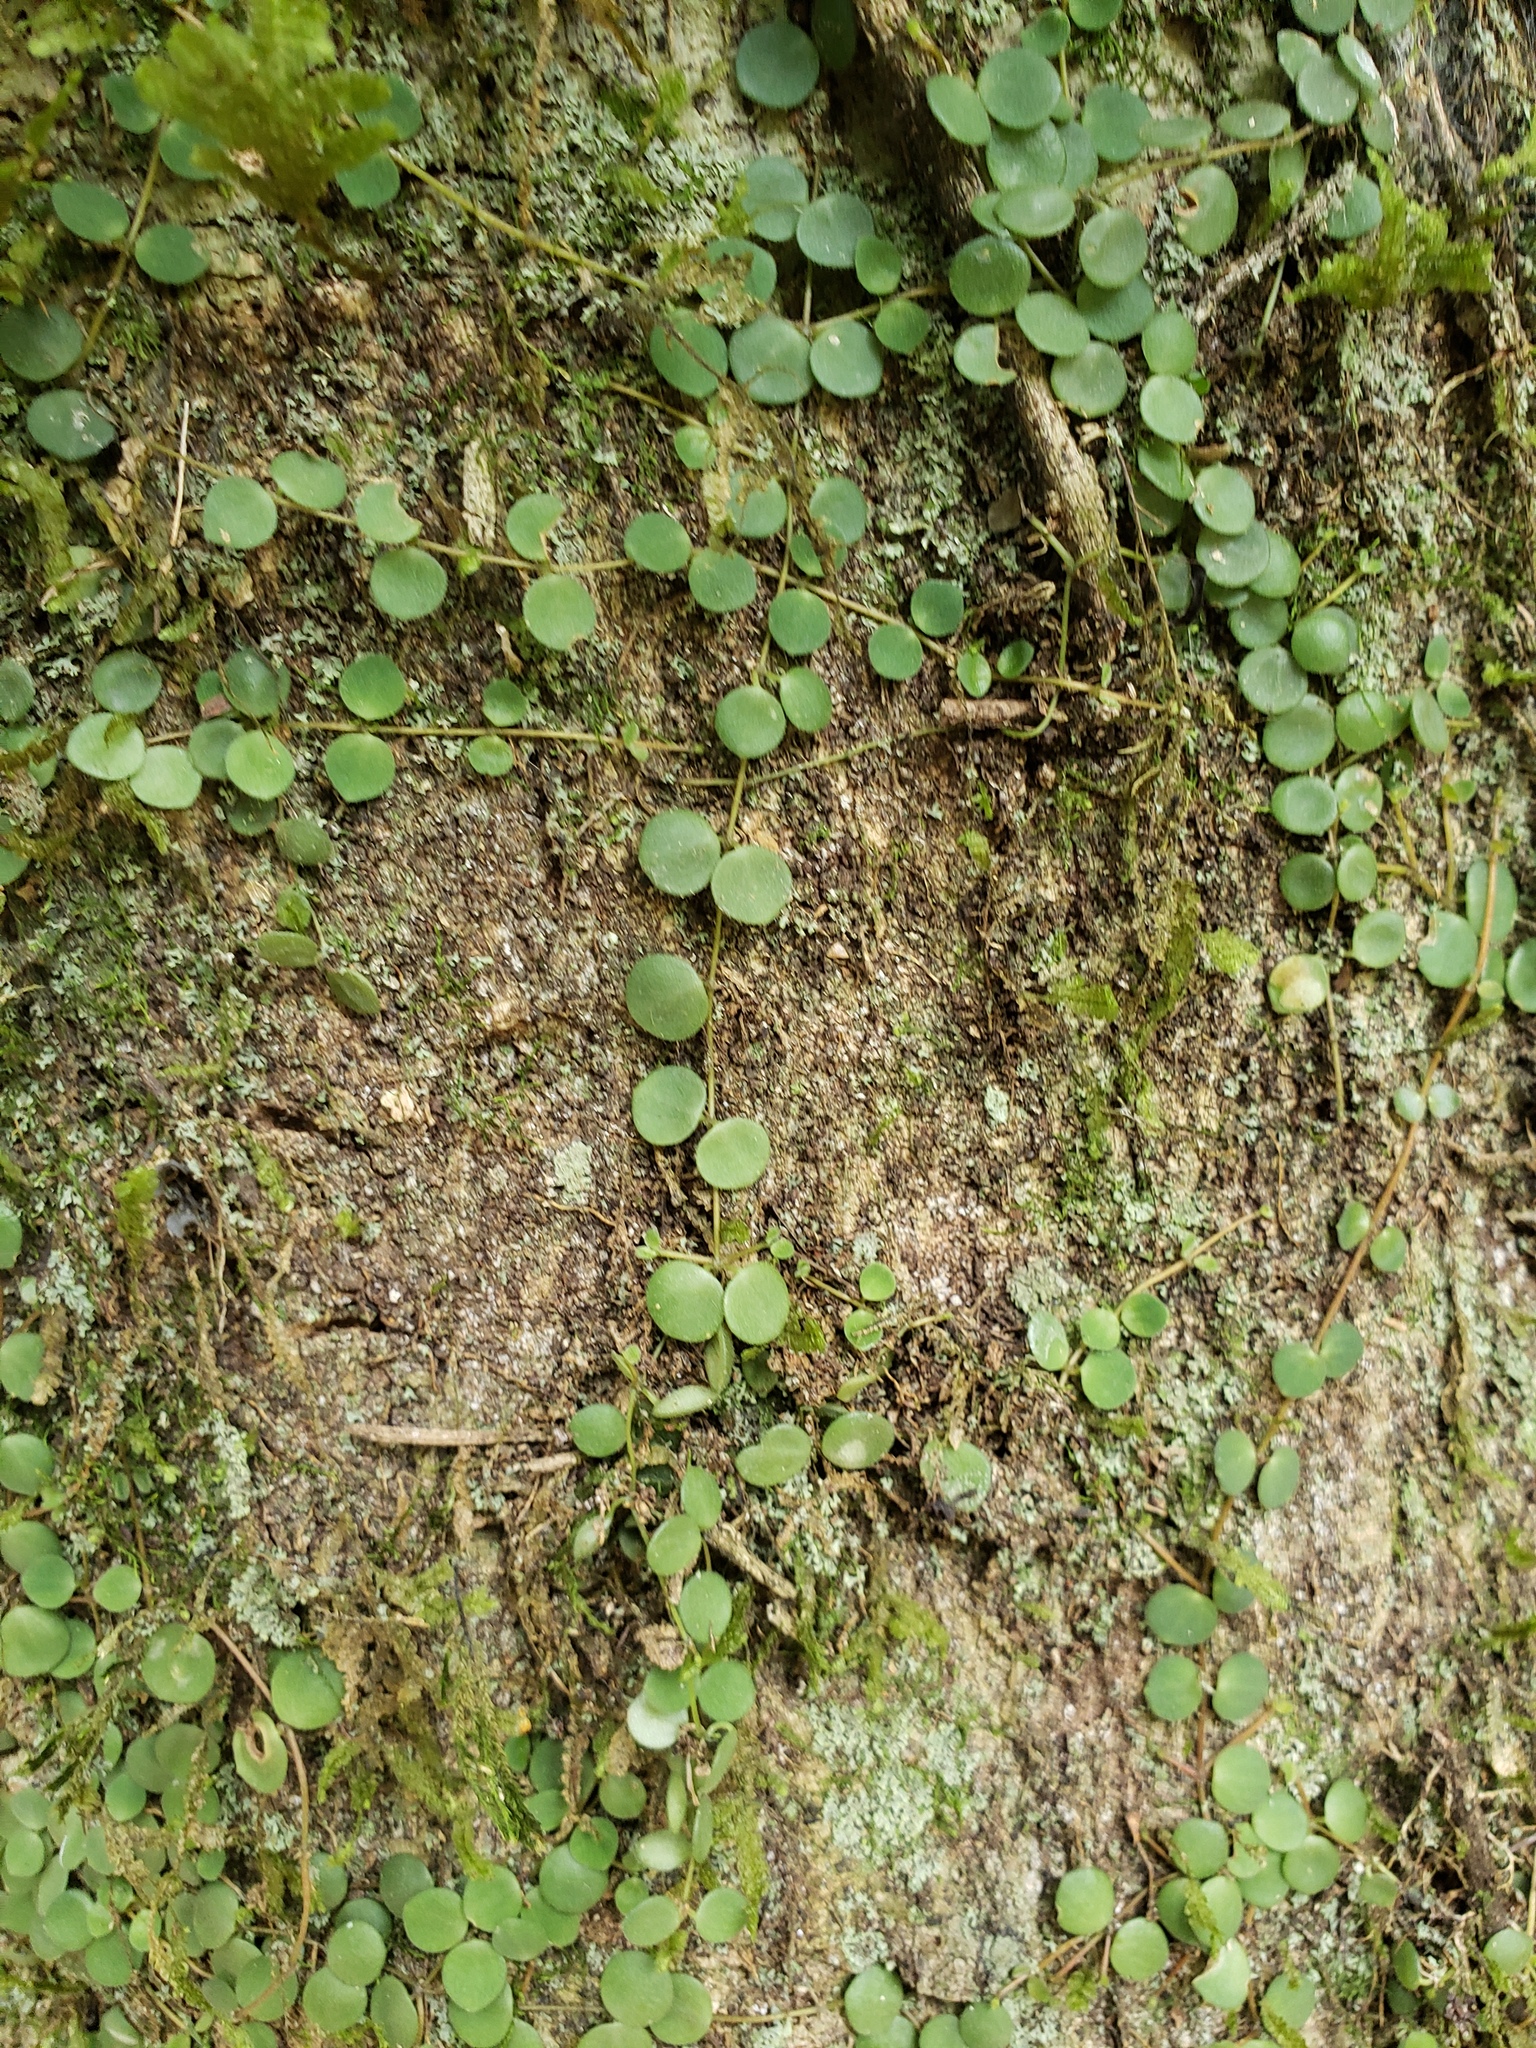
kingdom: Plantae
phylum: Tracheophyta
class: Magnoliopsida
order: Piperales
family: Piperaceae
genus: Peperomia
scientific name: Peperomia rotundifolia
